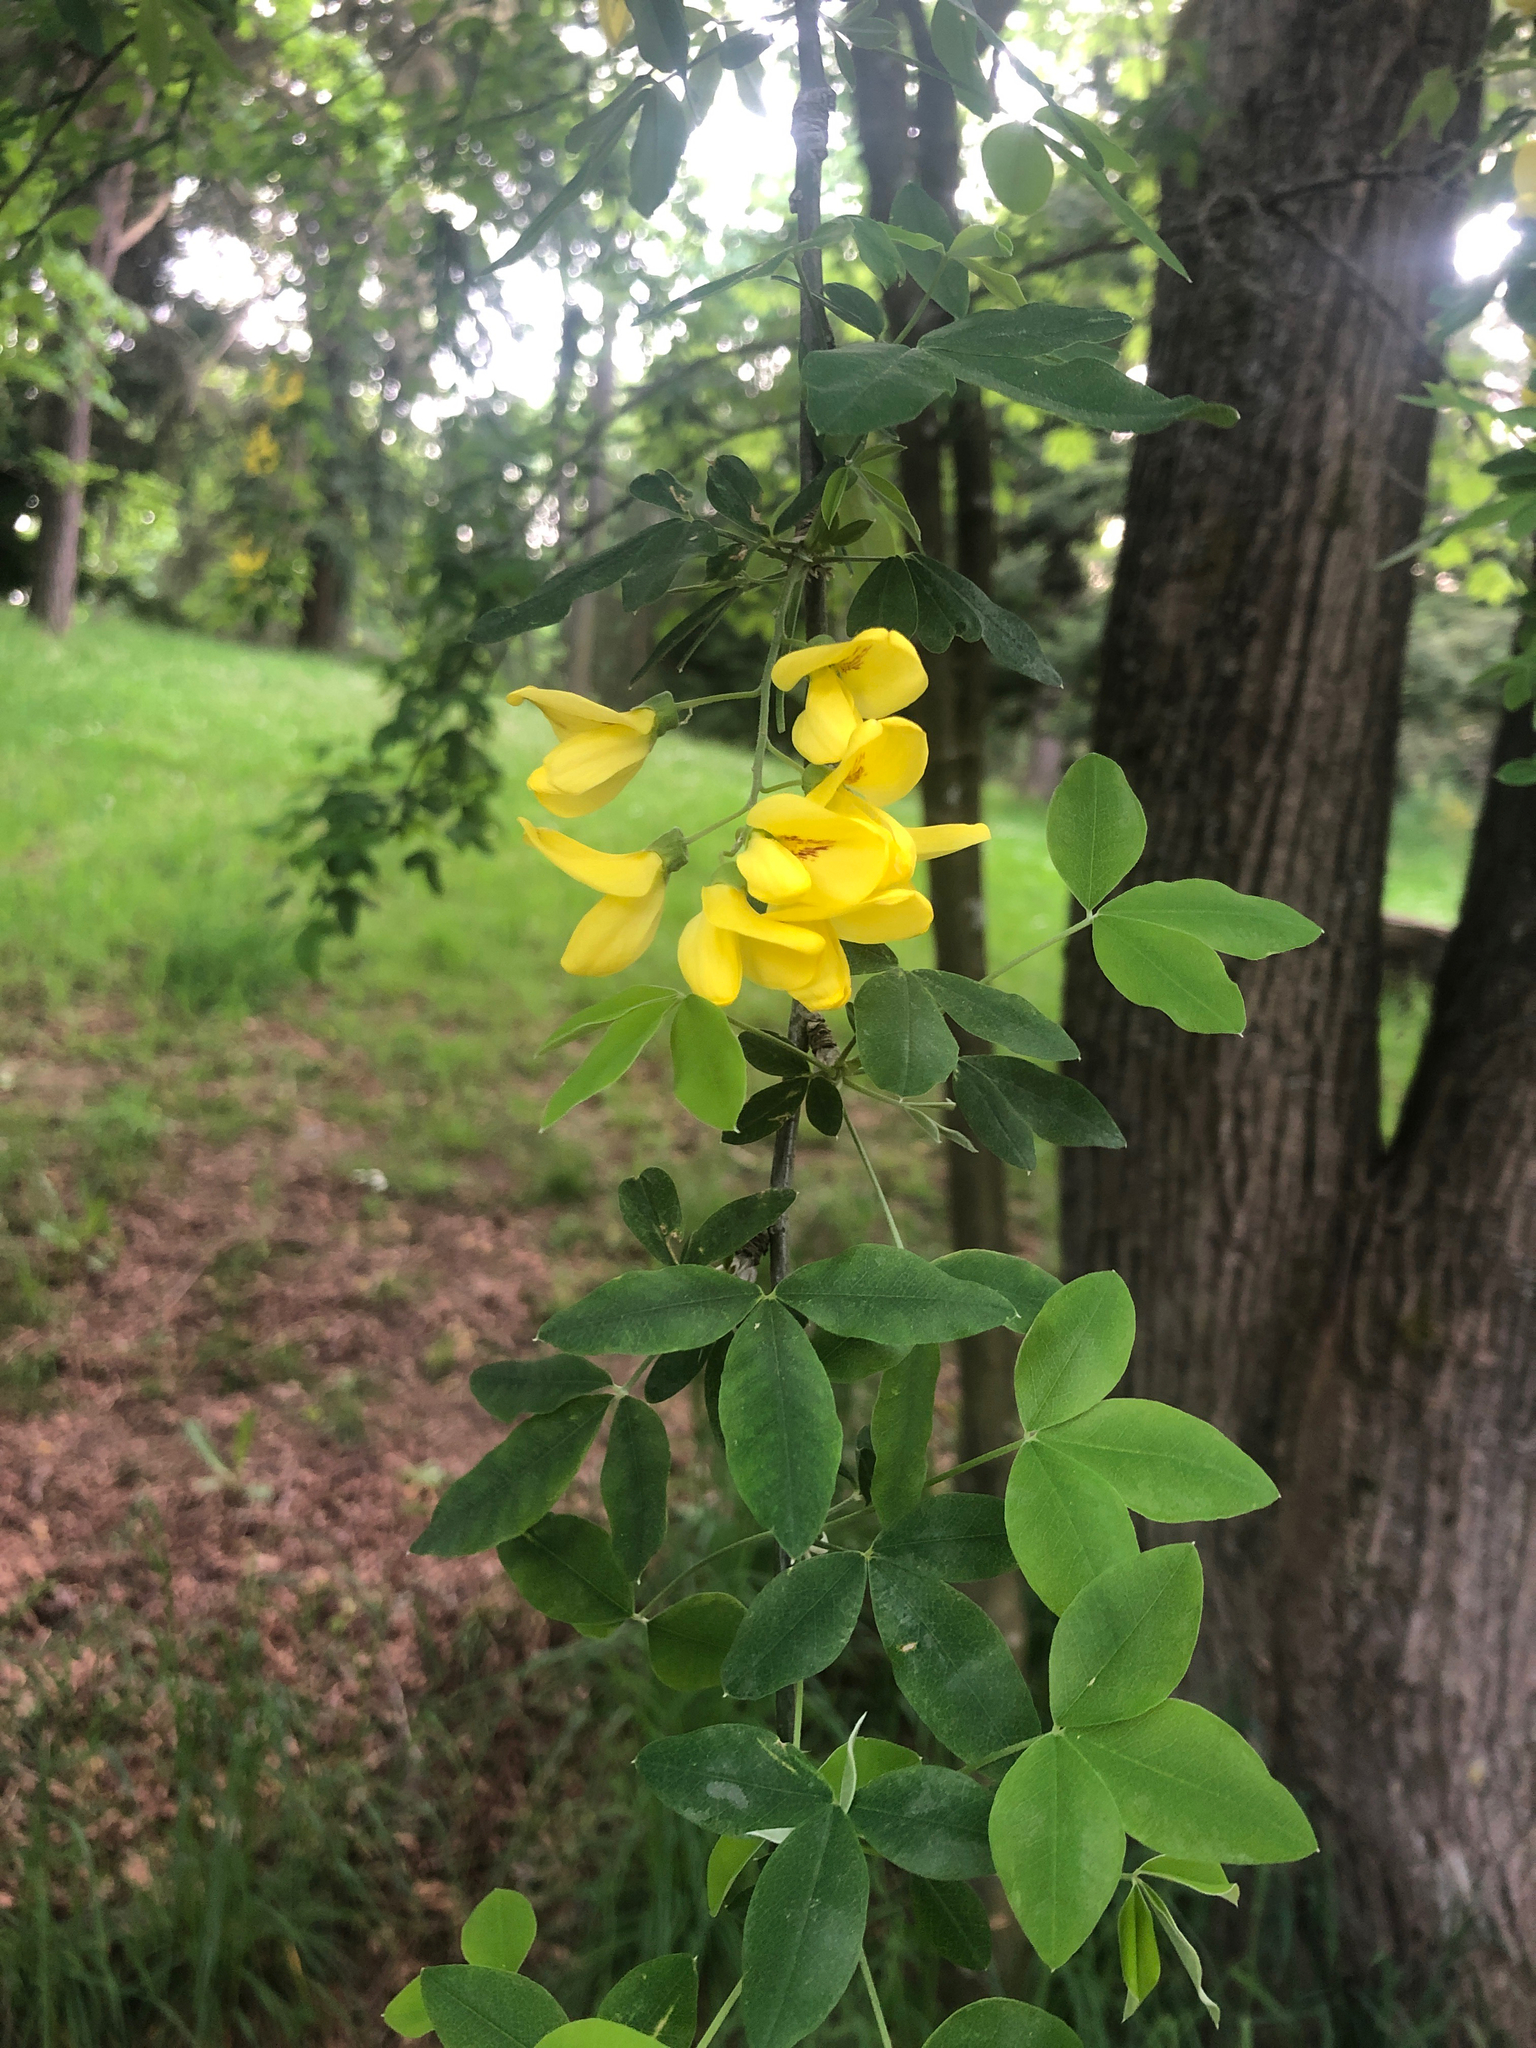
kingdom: Plantae
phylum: Tracheophyta
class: Magnoliopsida
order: Fabales
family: Fabaceae
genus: Laburnum
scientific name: Laburnum anagyroides
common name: Laburnum
